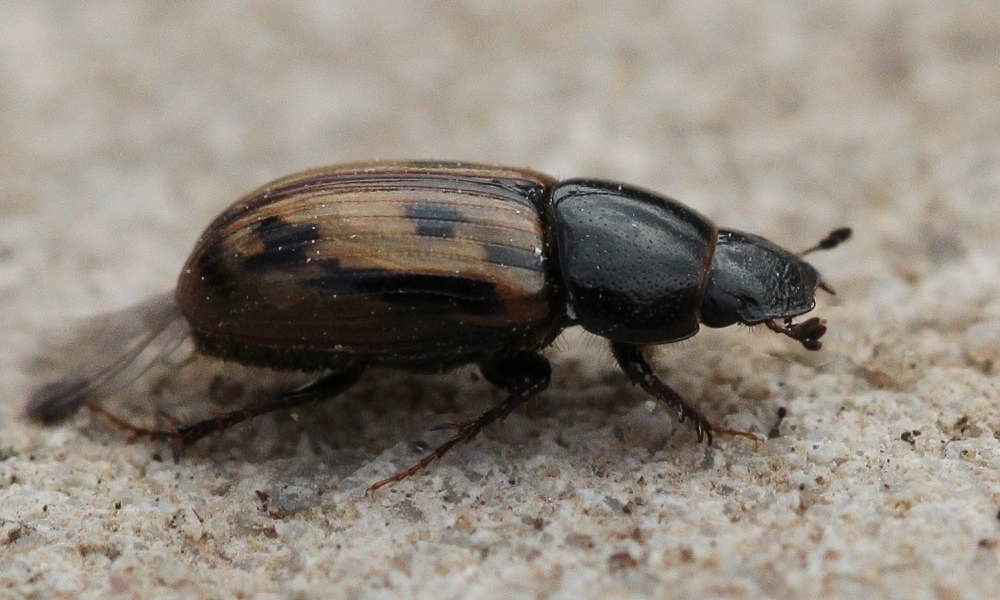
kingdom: Animalia
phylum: Arthropoda
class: Insecta
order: Coleoptera
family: Scarabaeidae
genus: Chilothorax
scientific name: Chilothorax distinctus
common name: Maculated dung beetle
